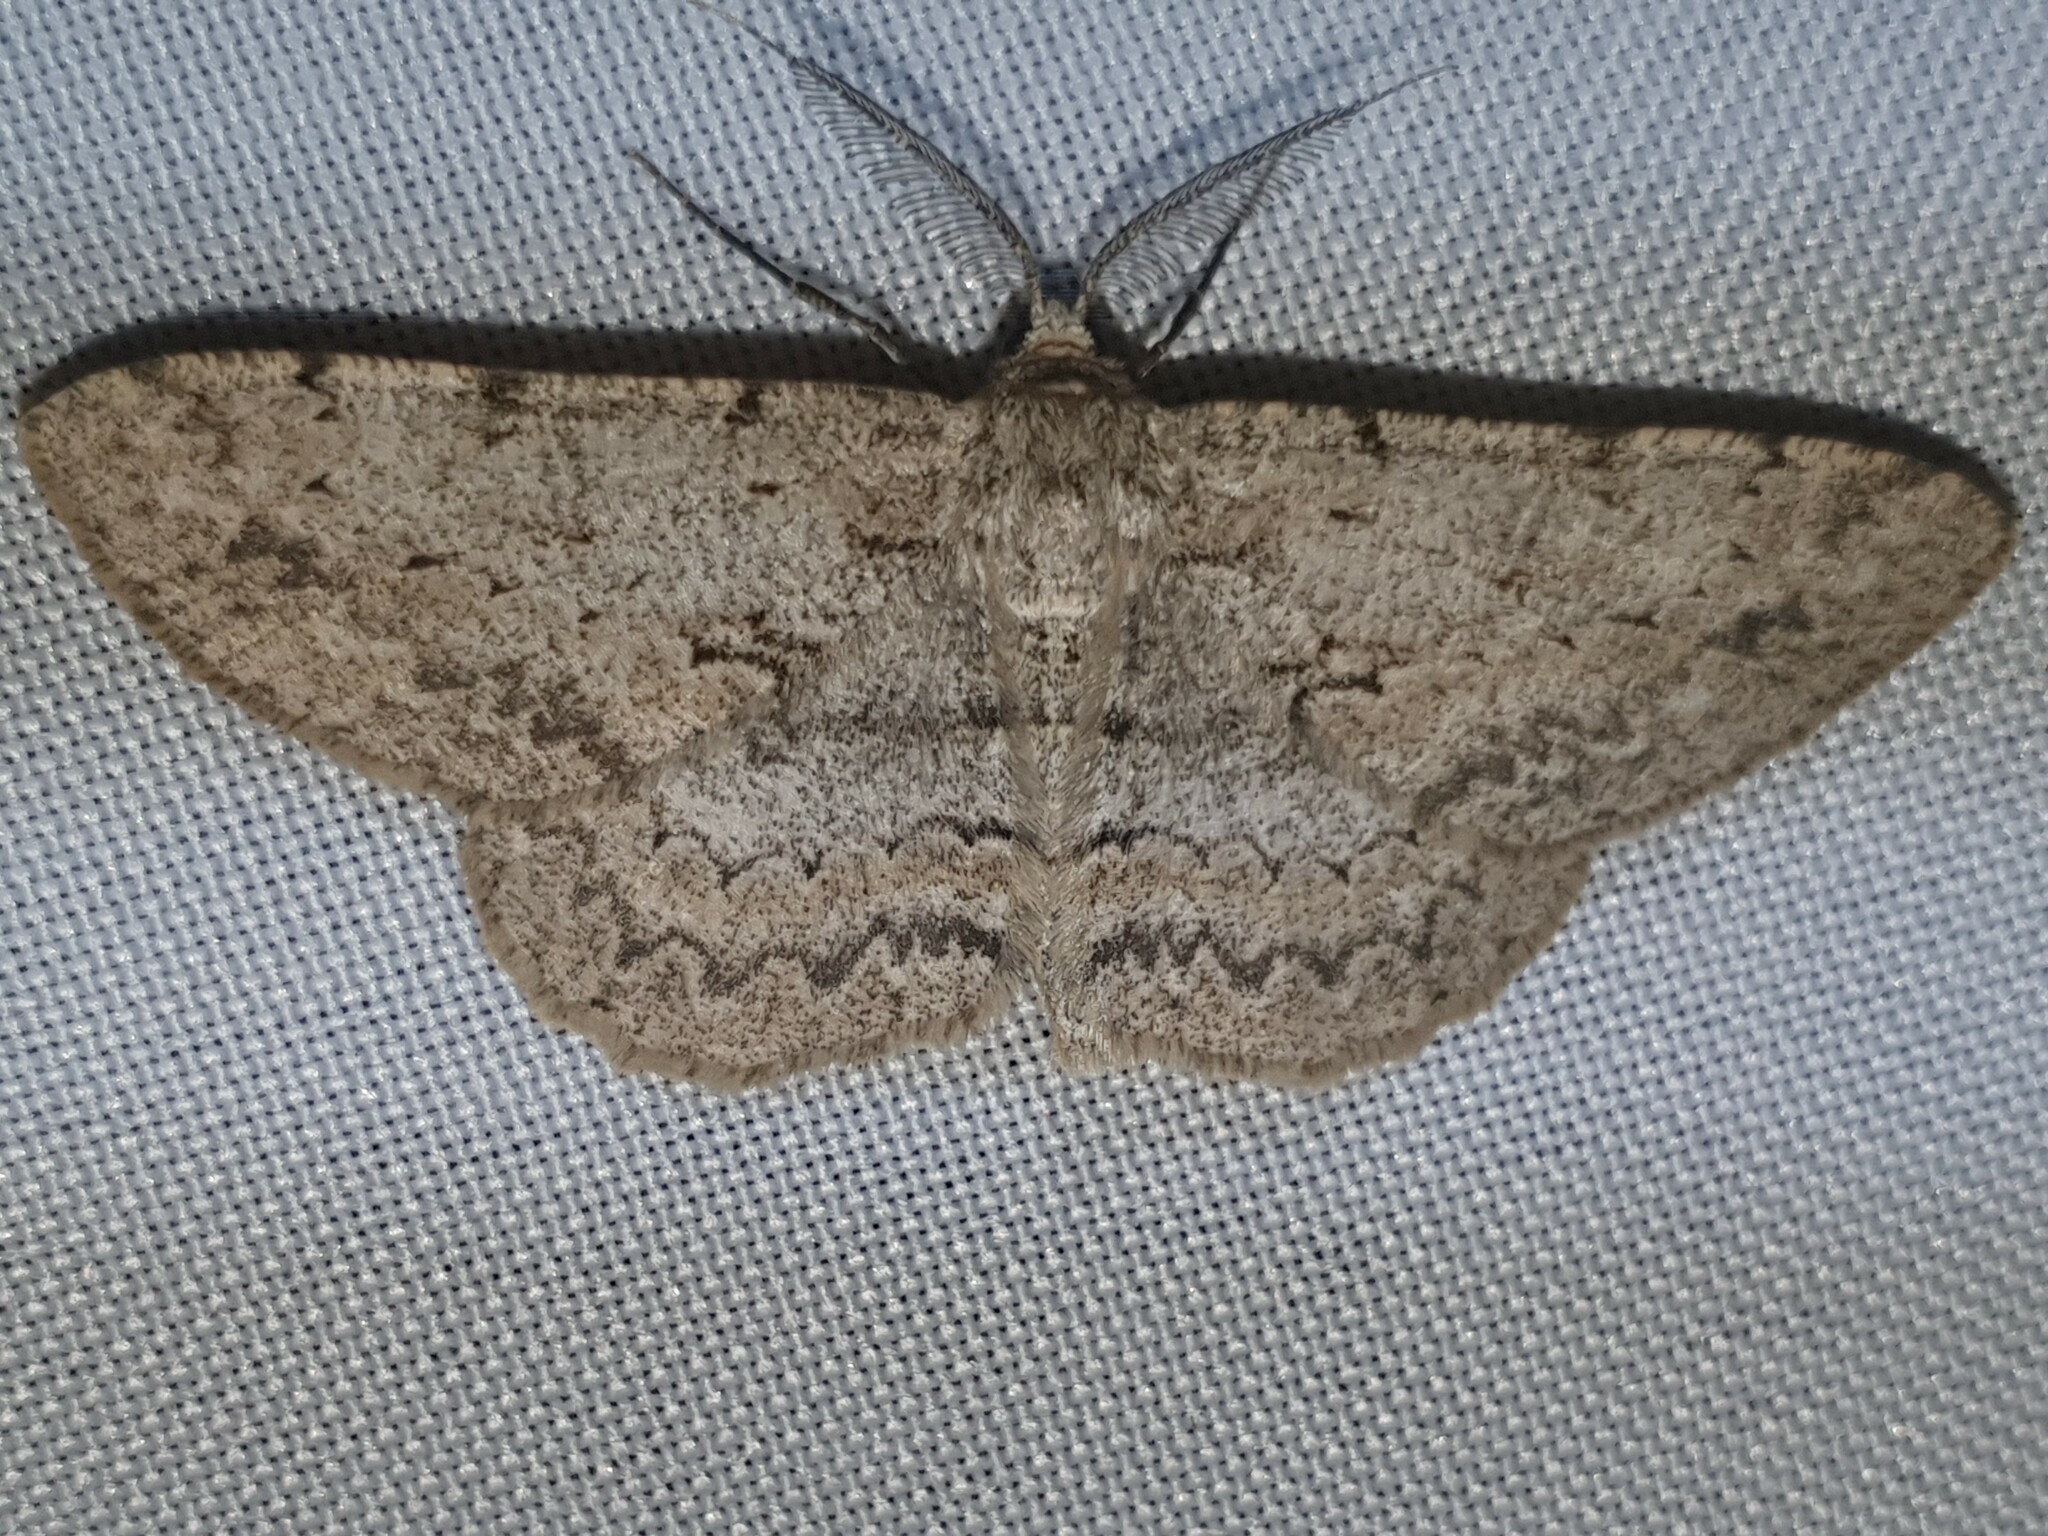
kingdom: Animalia
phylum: Arthropoda
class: Insecta
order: Lepidoptera
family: Geometridae
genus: Hypomecis
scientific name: Hypomecis punctinalis
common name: Pale oak beauty
